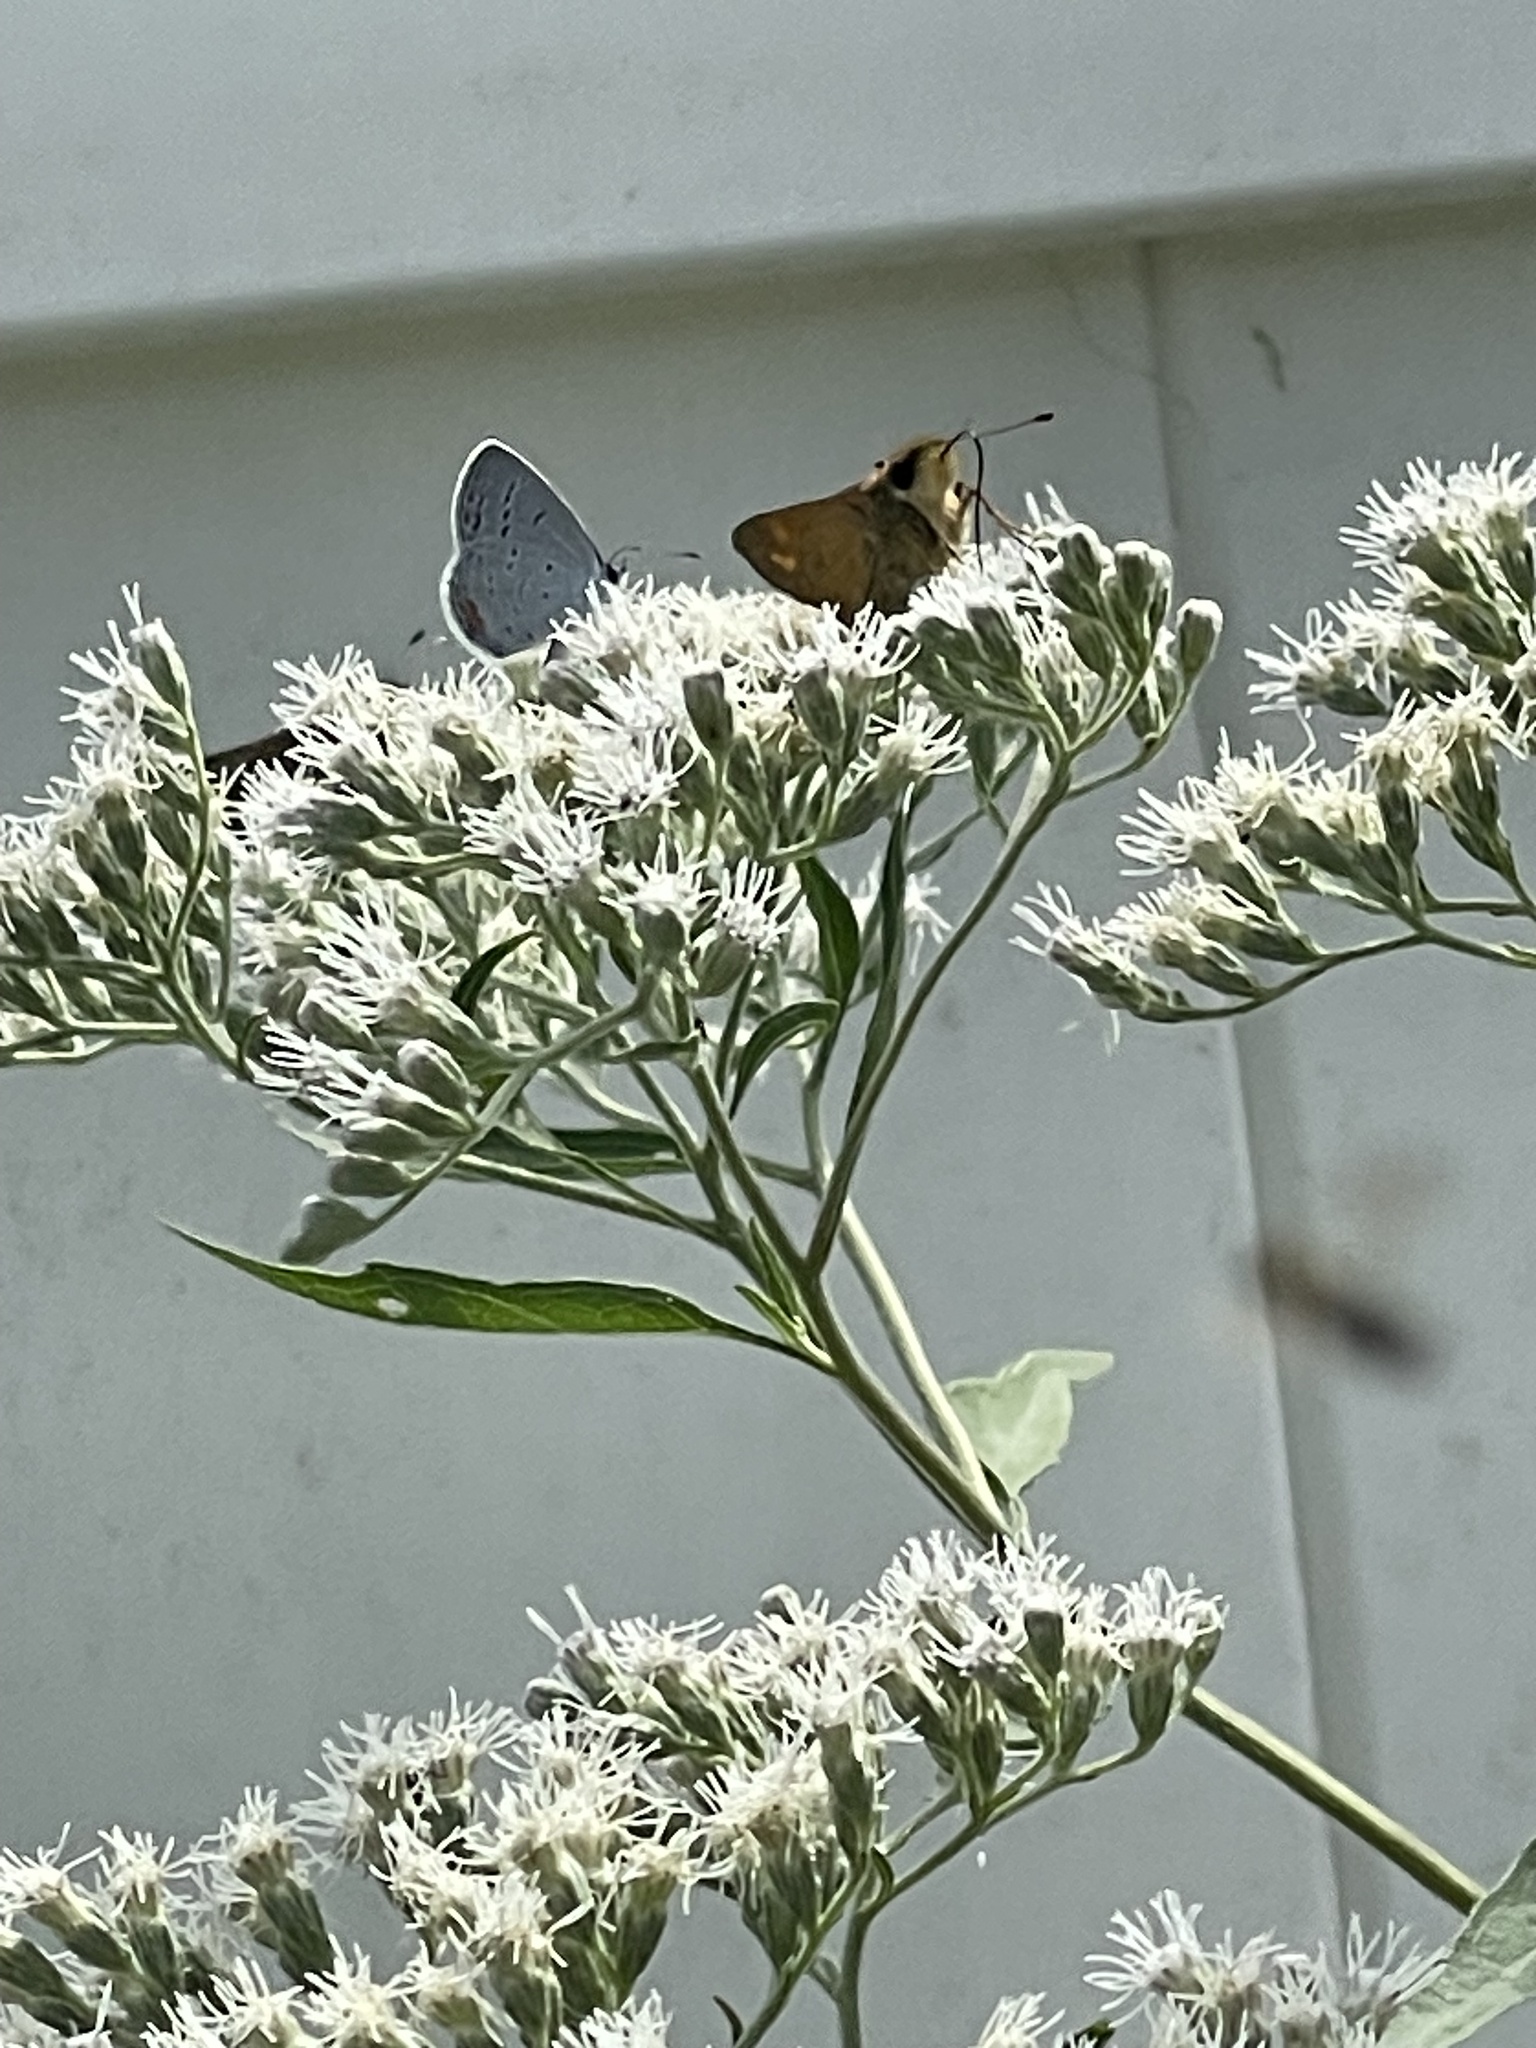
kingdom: Animalia
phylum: Arthropoda
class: Insecta
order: Lepidoptera
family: Lycaenidae
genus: Elkalyce
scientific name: Elkalyce comyntas
